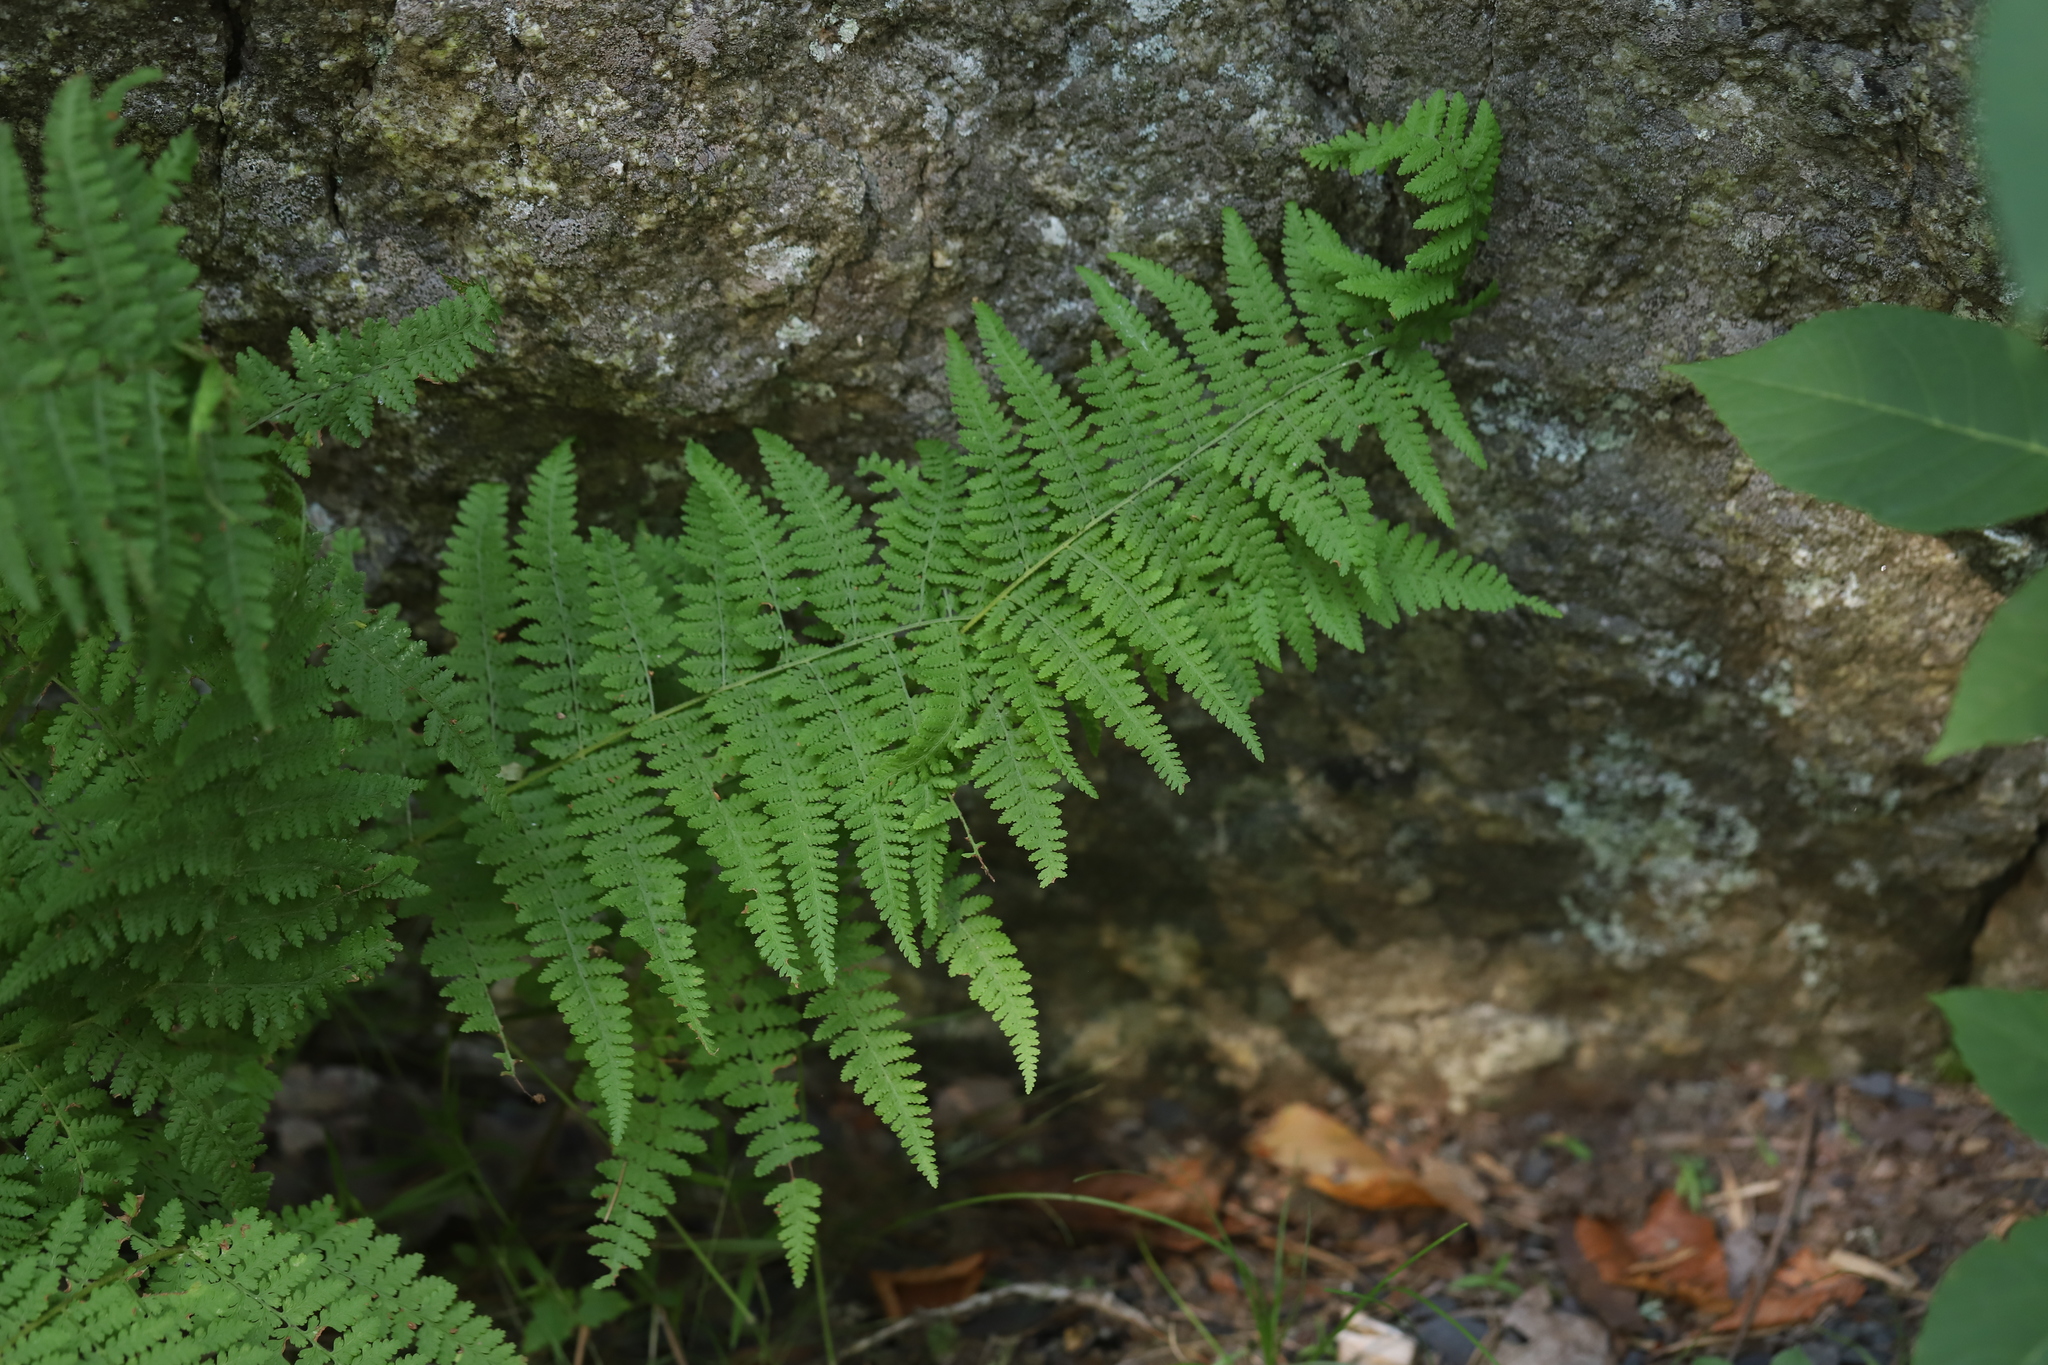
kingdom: Plantae
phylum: Tracheophyta
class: Polypodiopsida
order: Polypodiales
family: Dennstaedtiaceae
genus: Sitobolium
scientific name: Sitobolium punctilobum
